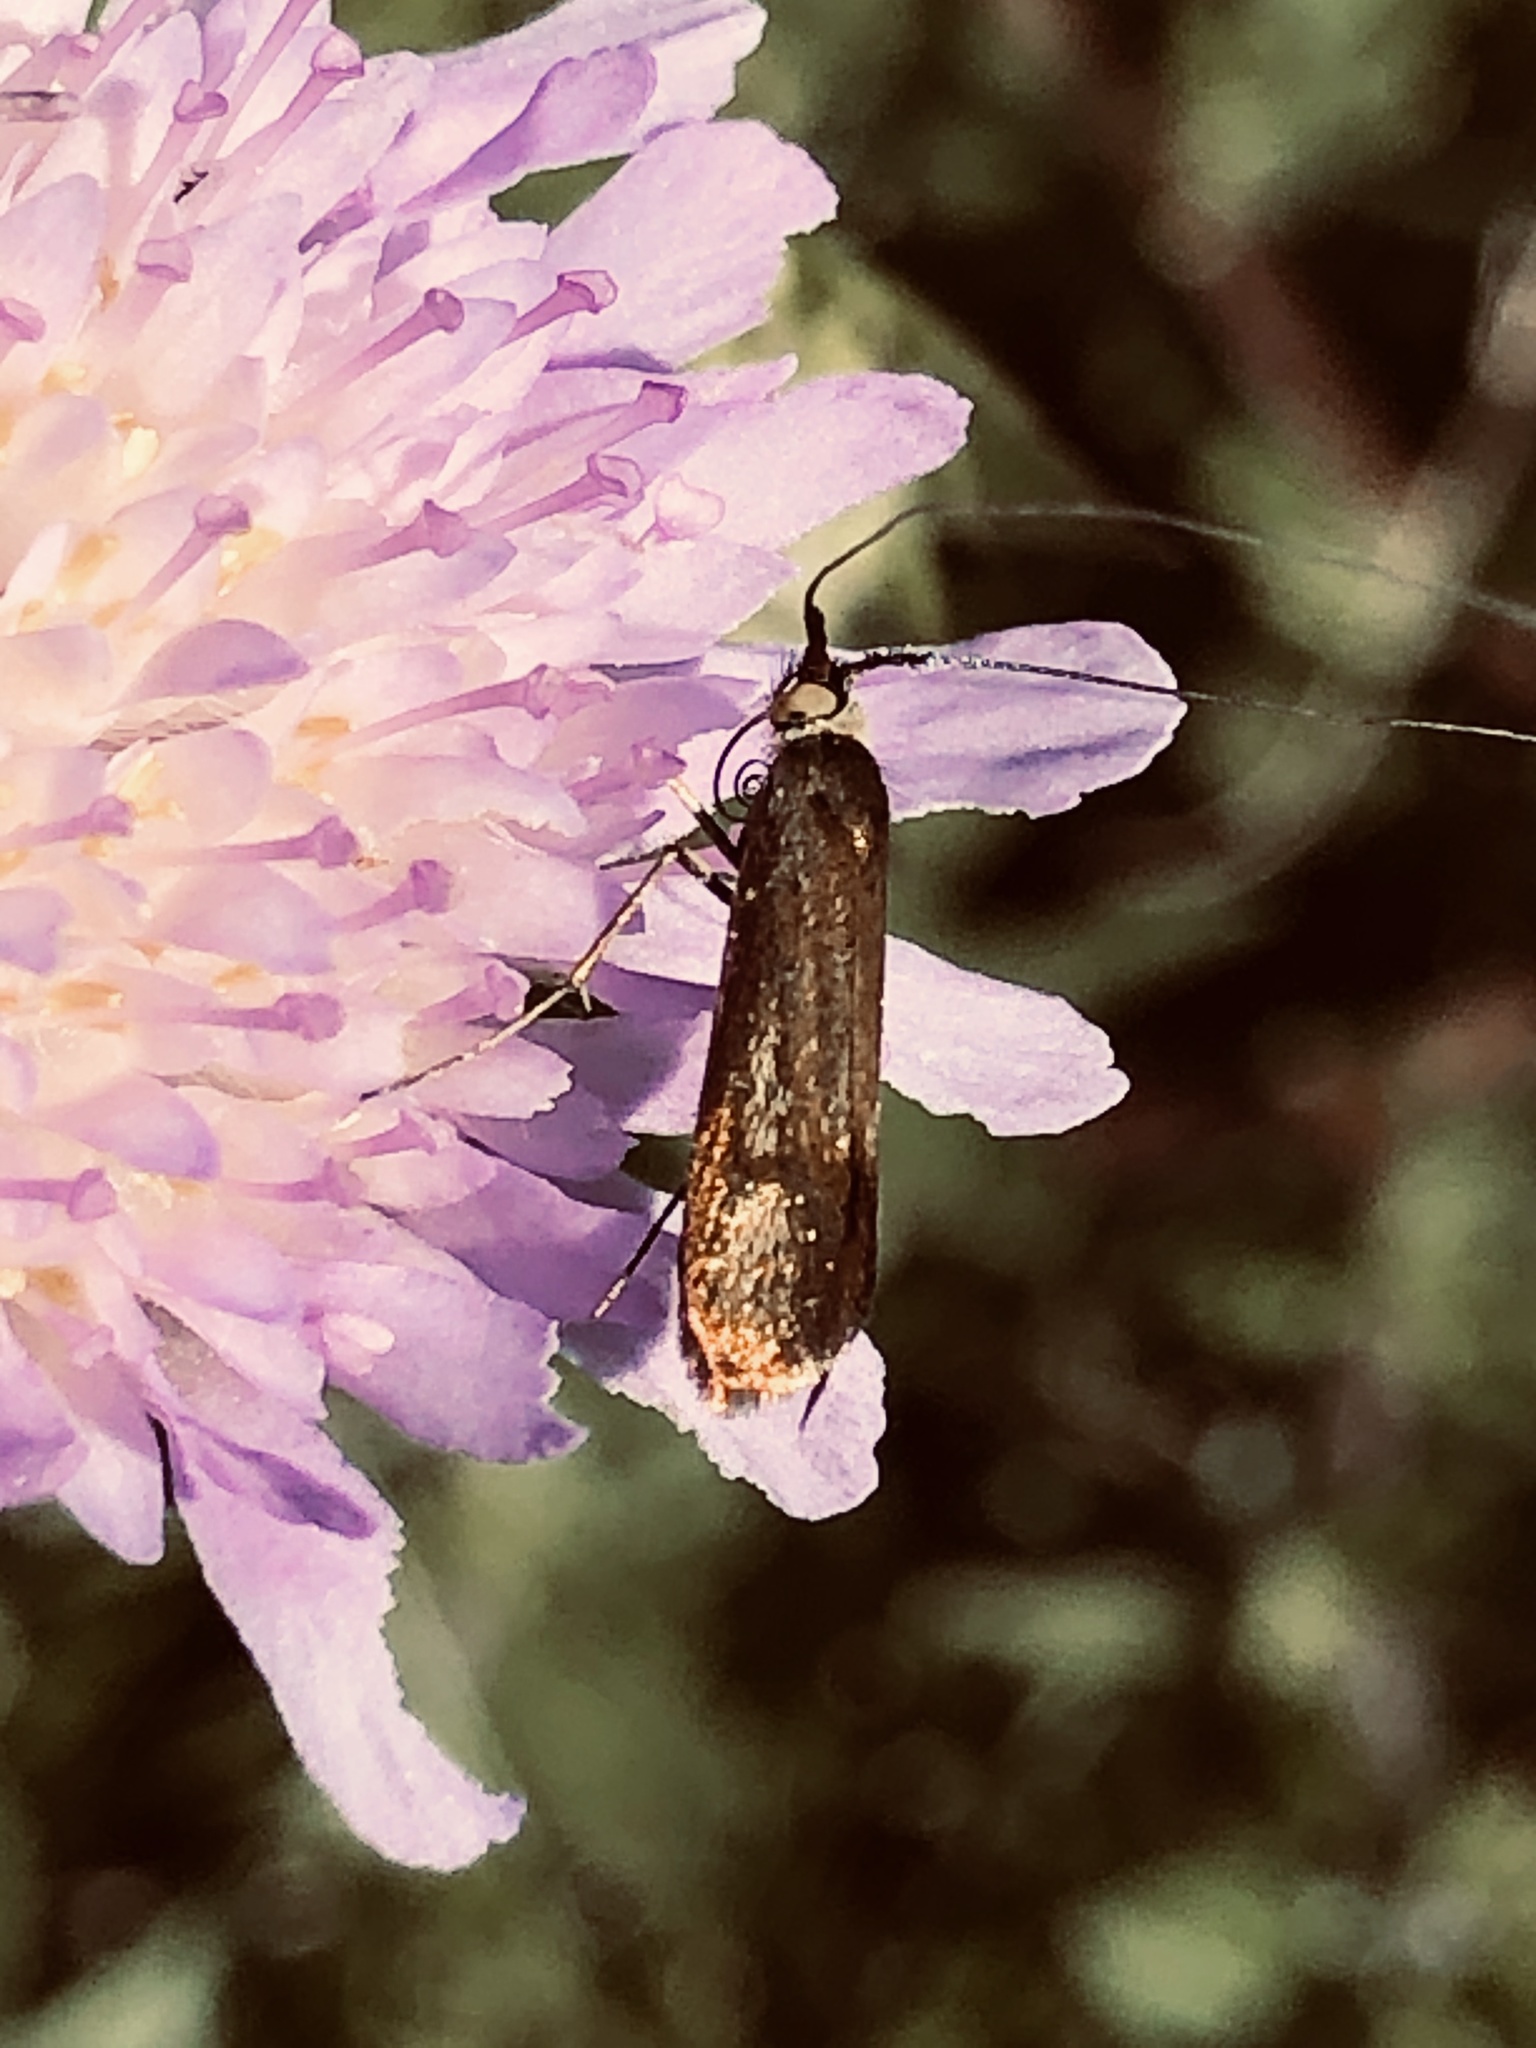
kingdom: Animalia
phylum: Arthropoda
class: Insecta
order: Lepidoptera
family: Adelidae
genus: Nemophora
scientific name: Nemophora metallica
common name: Brassy long-horn
